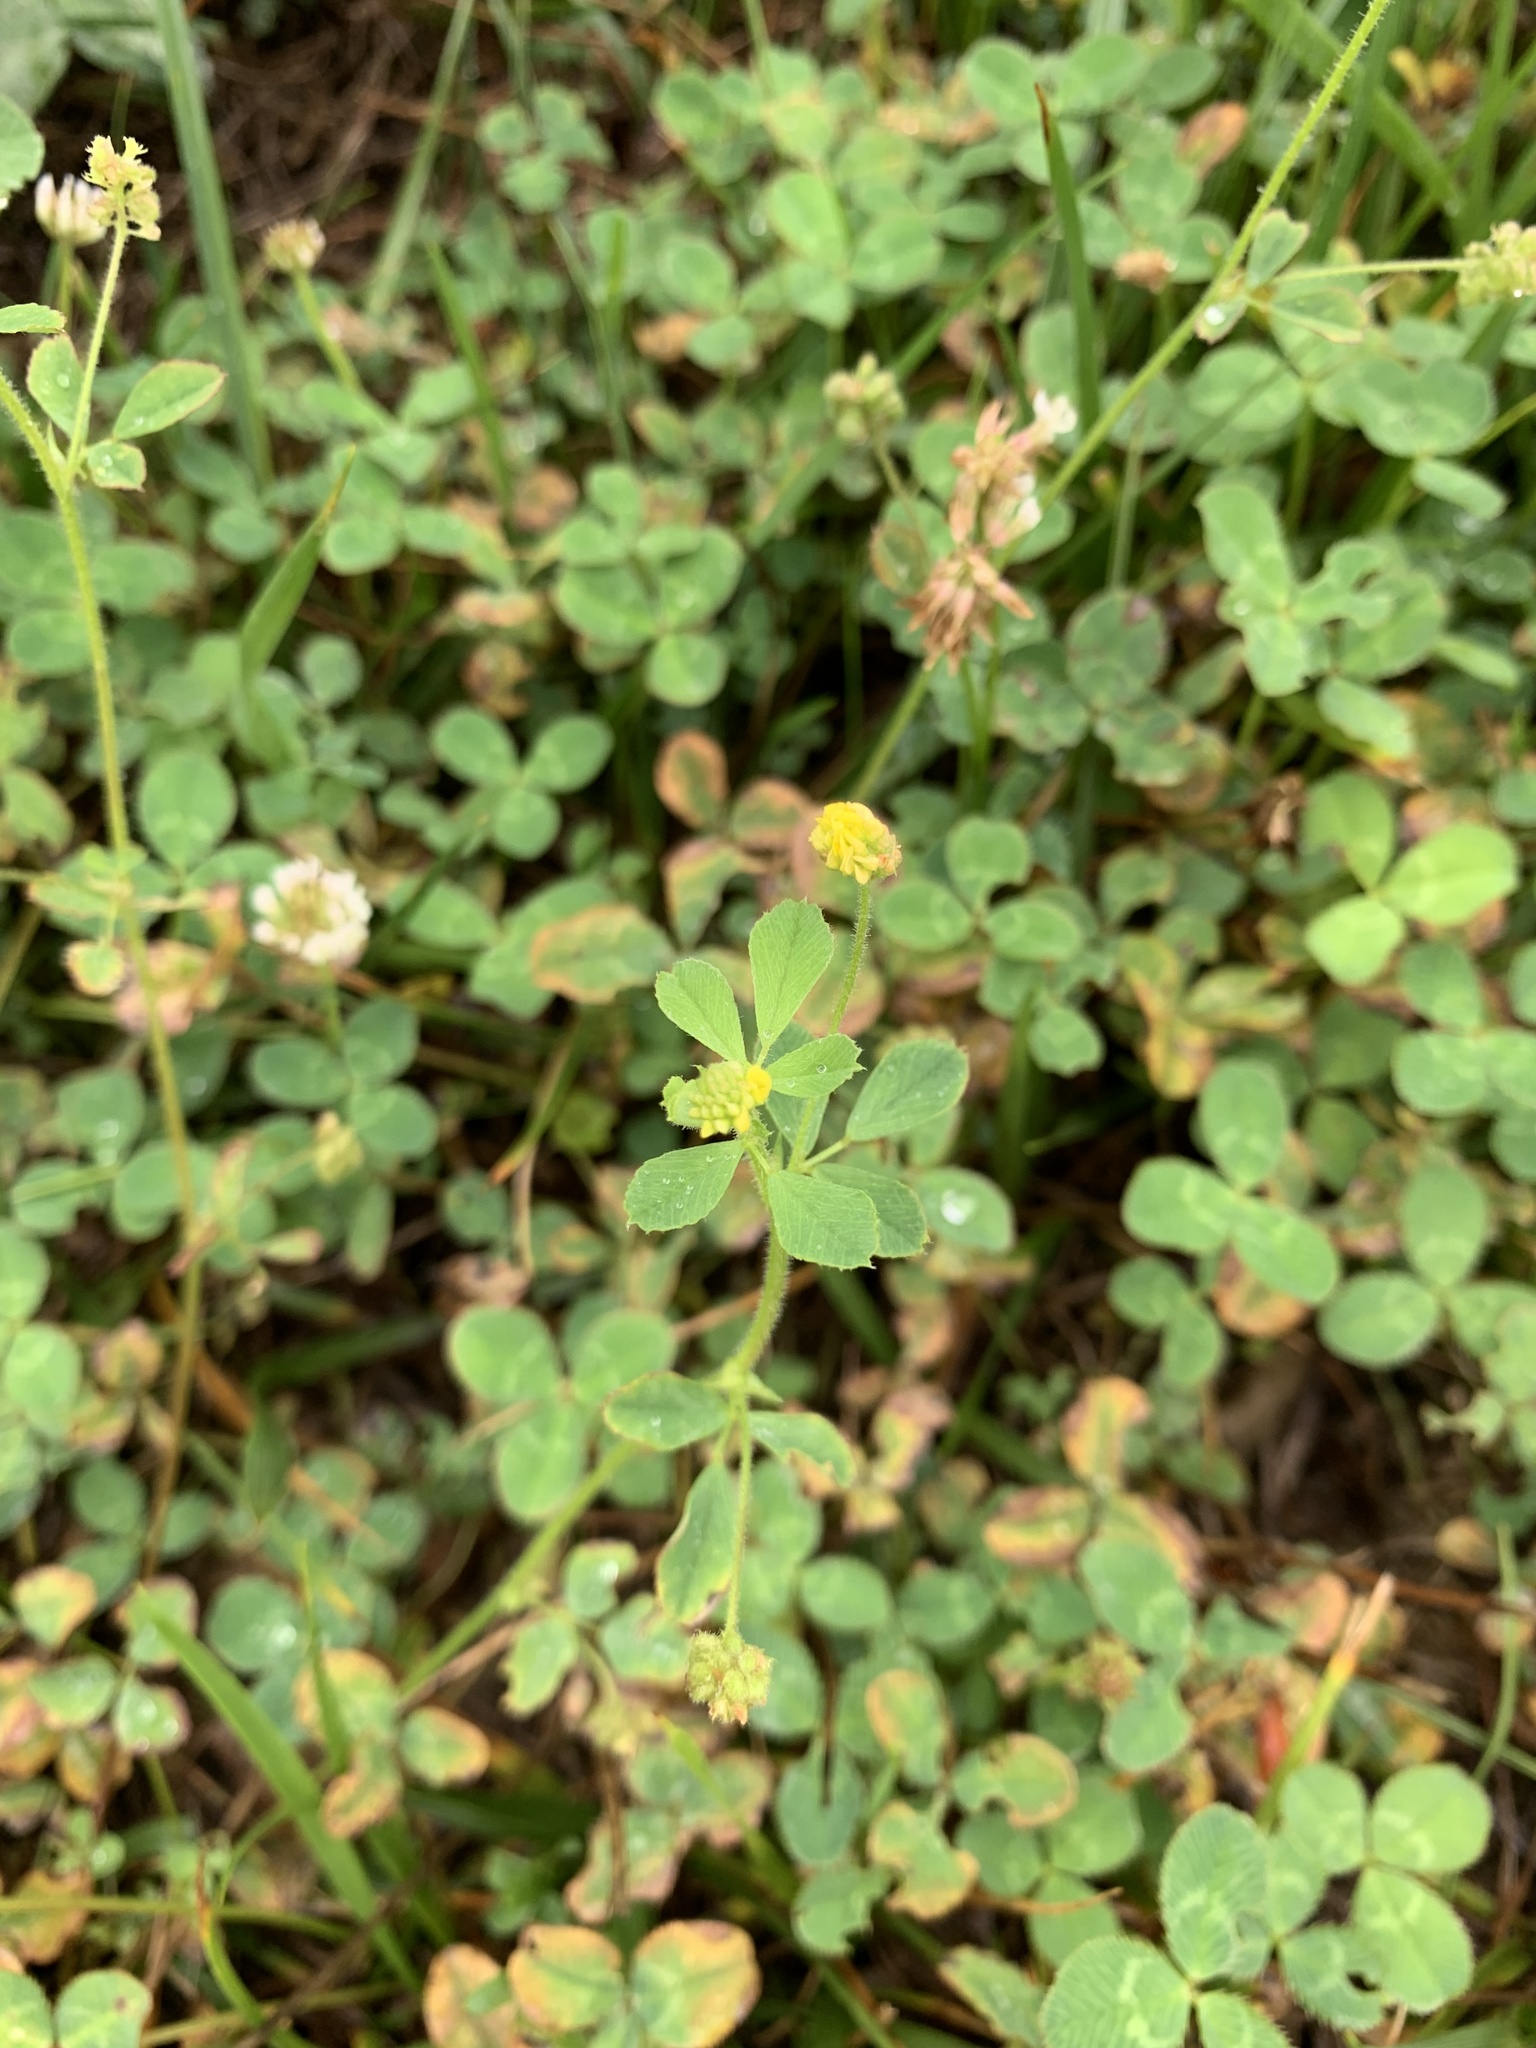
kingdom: Plantae
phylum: Tracheophyta
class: Magnoliopsida
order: Fabales
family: Fabaceae
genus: Medicago
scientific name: Medicago lupulina
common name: Black medick
